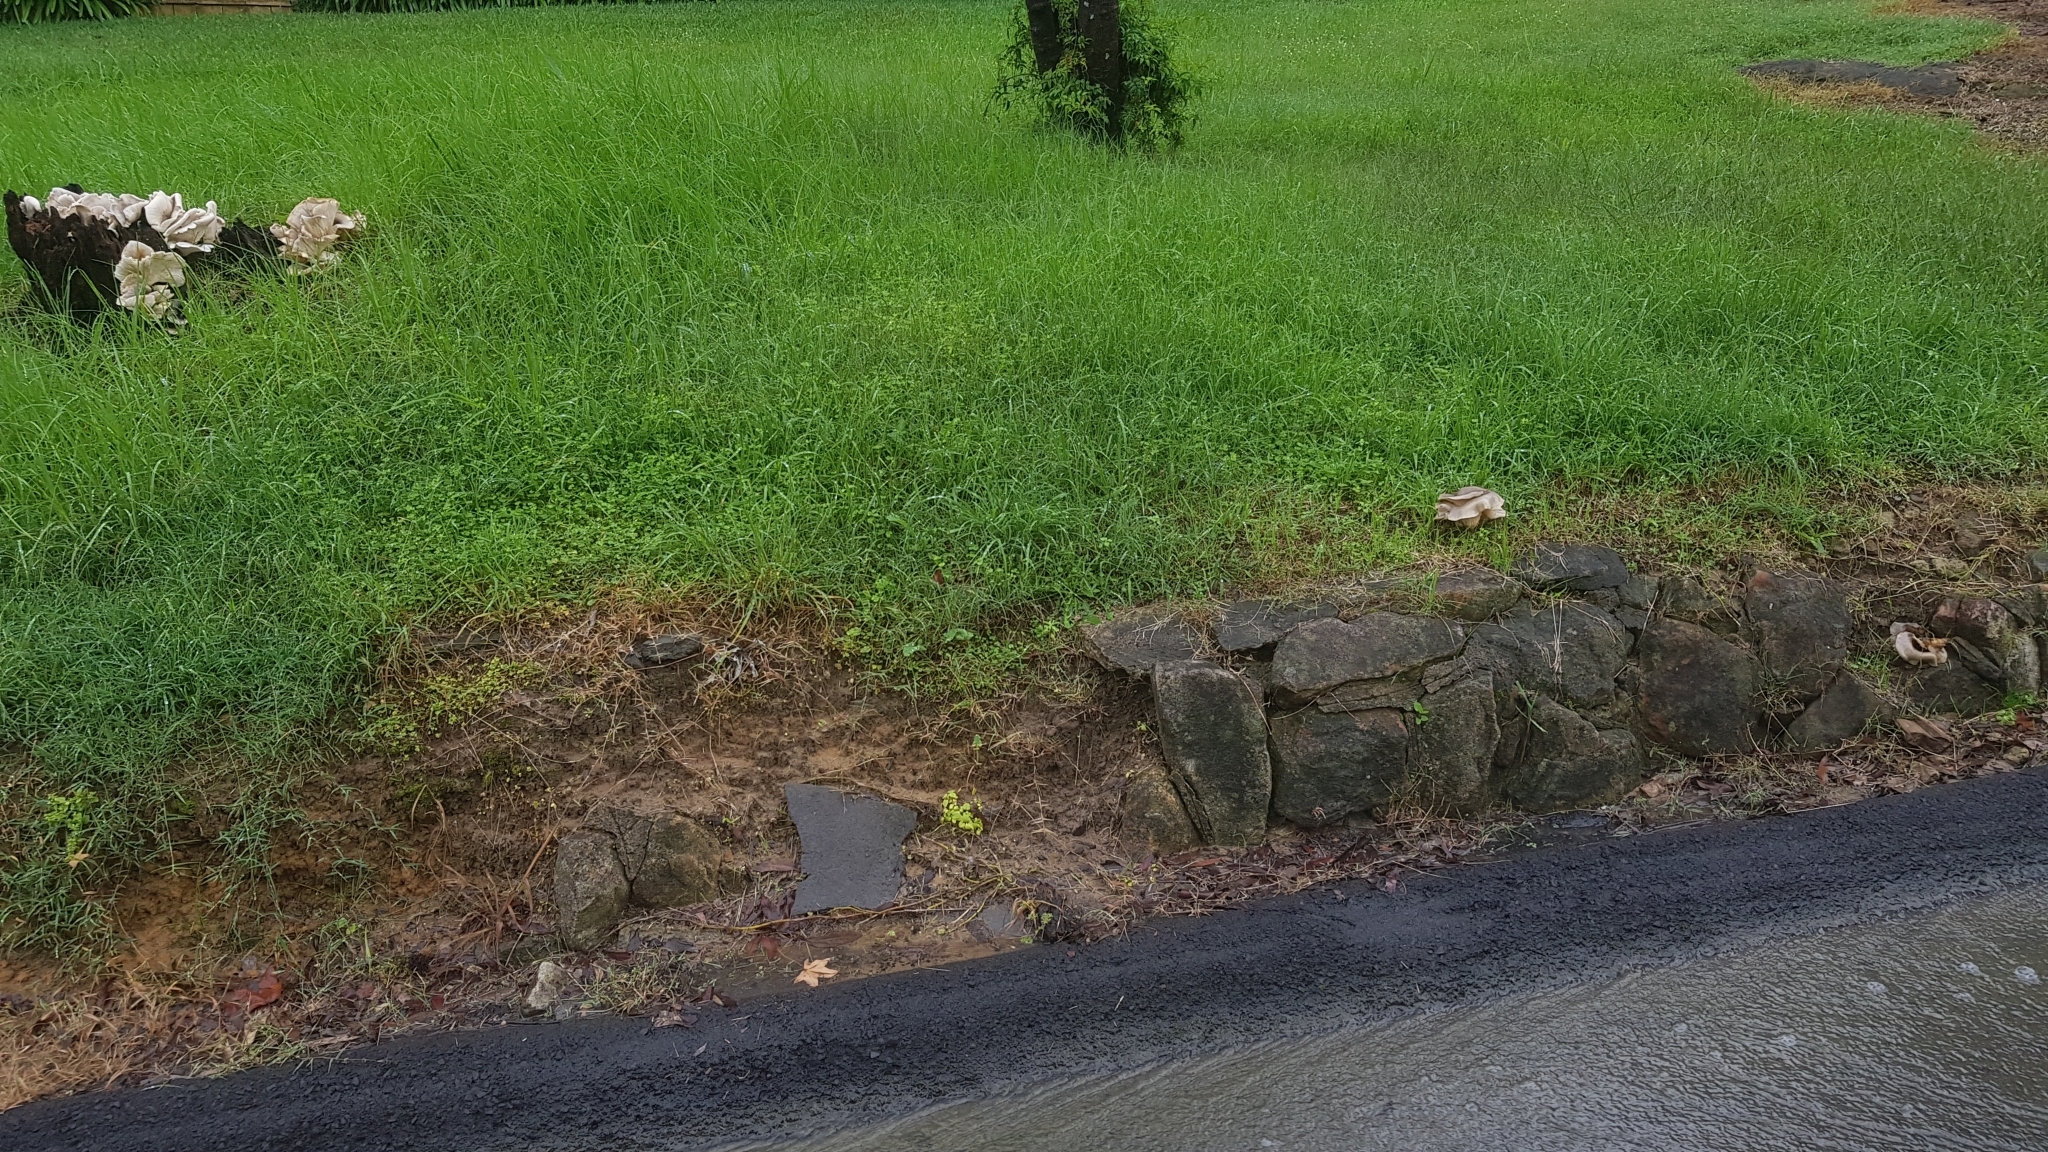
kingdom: Fungi
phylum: Basidiomycota
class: Agaricomycetes
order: Agaricales
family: Omphalotaceae
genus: Omphalotus
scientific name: Omphalotus nidiformis
